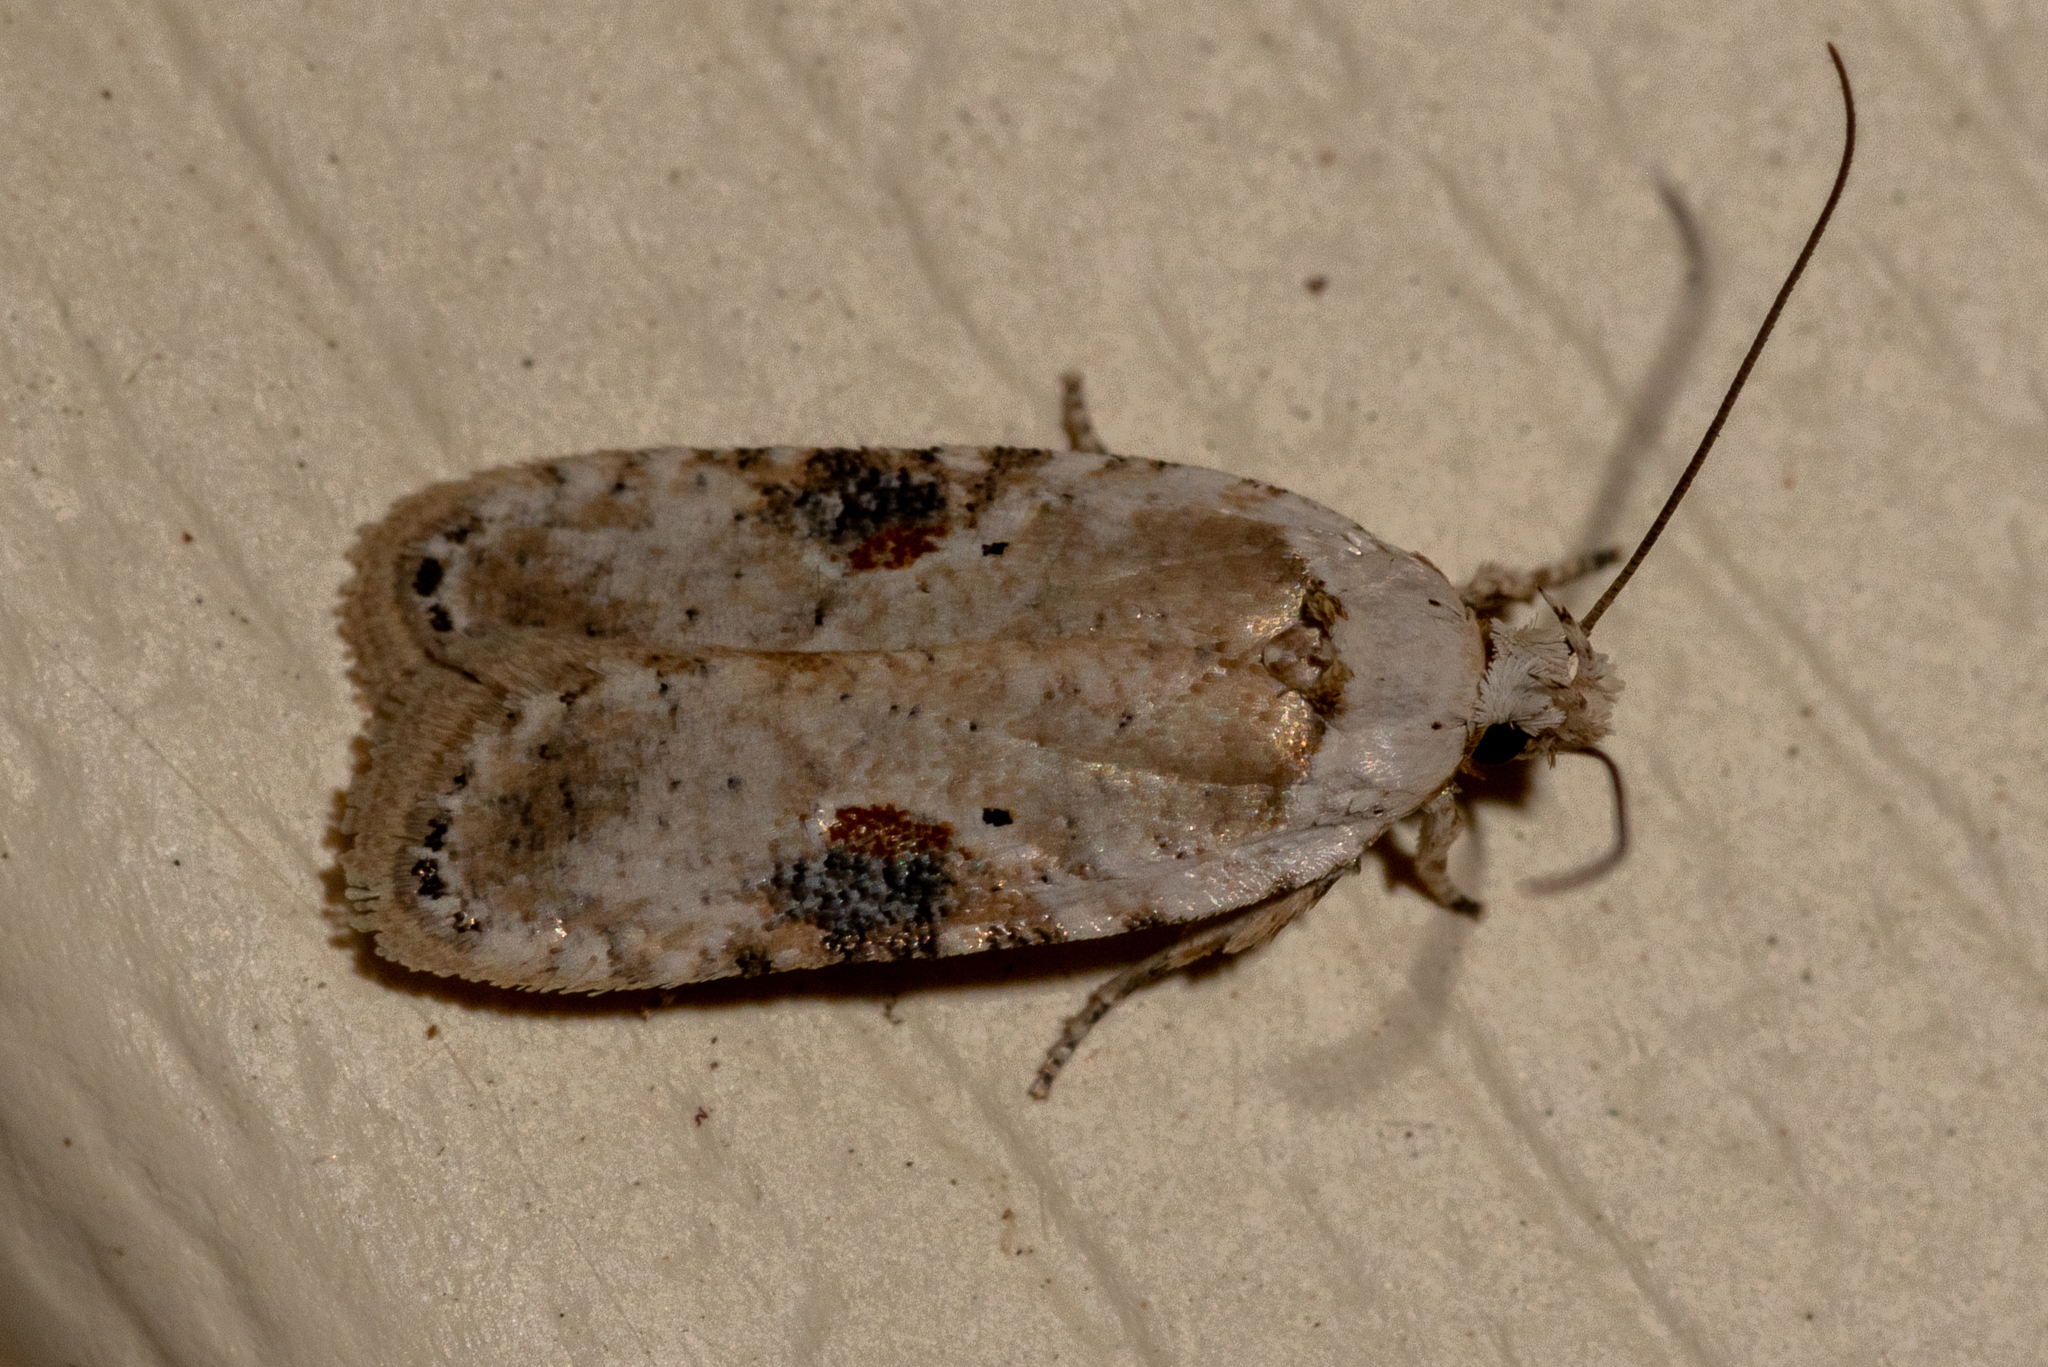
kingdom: Animalia
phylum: Arthropoda
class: Insecta
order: Lepidoptera
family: Depressariidae
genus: Agonopterix
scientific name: Agonopterix alstroemeriana
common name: Moth
